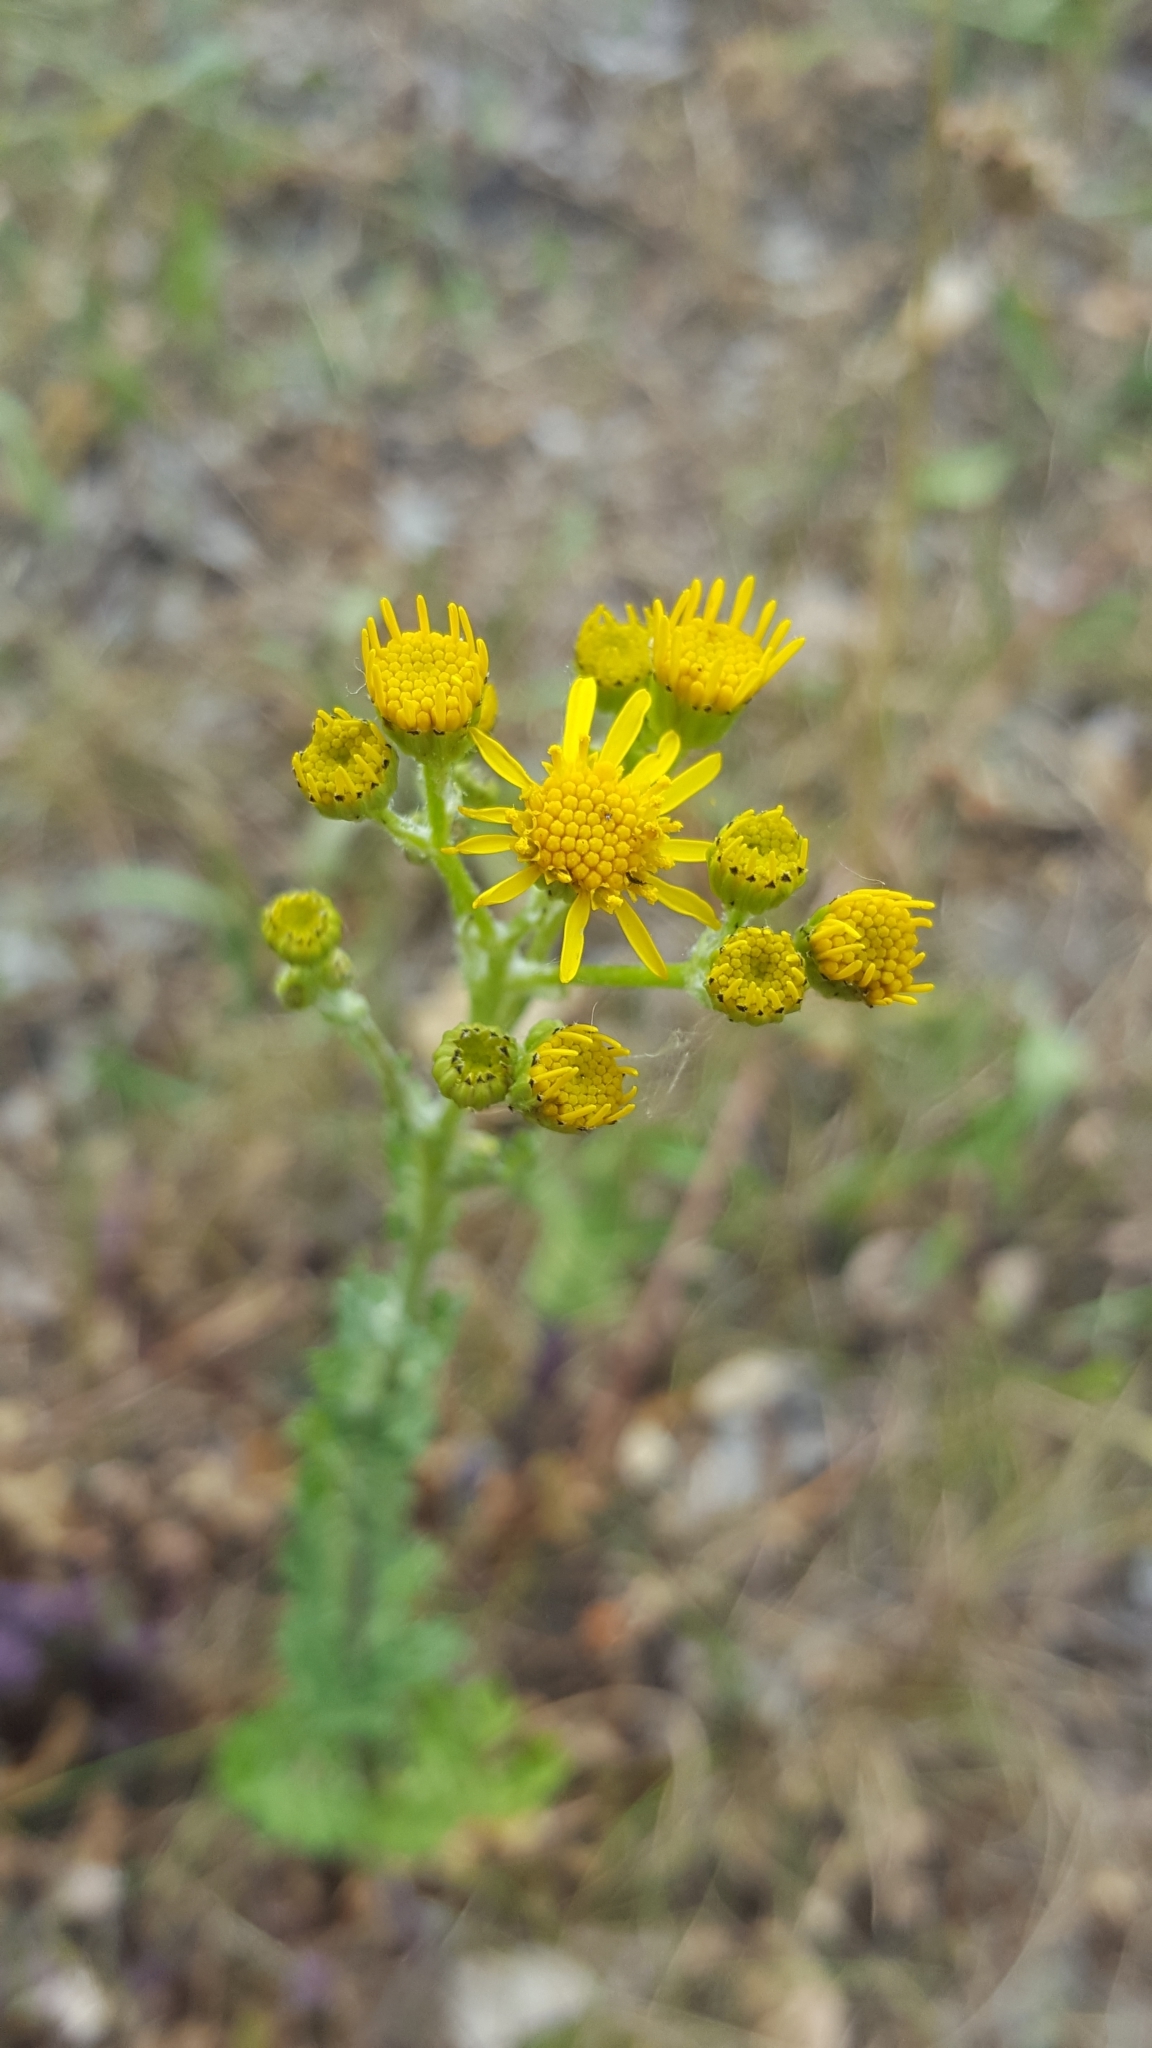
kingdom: Plantae
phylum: Tracheophyta
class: Magnoliopsida
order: Asterales
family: Asteraceae
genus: Jacobaea
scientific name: Jacobaea vulgaris
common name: Stinking willie
